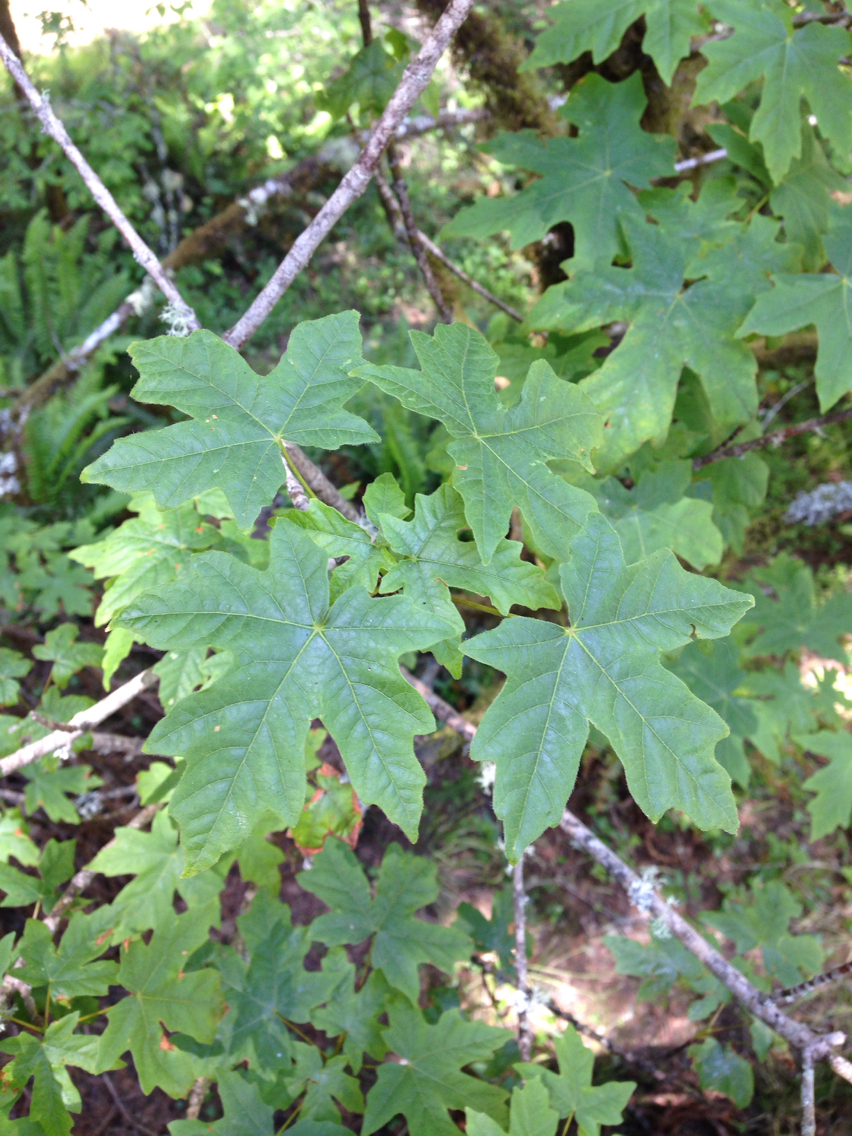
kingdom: Plantae
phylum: Tracheophyta
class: Magnoliopsida
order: Sapindales
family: Sapindaceae
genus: Acer
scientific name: Acer macrophyllum
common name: Oregon maple
